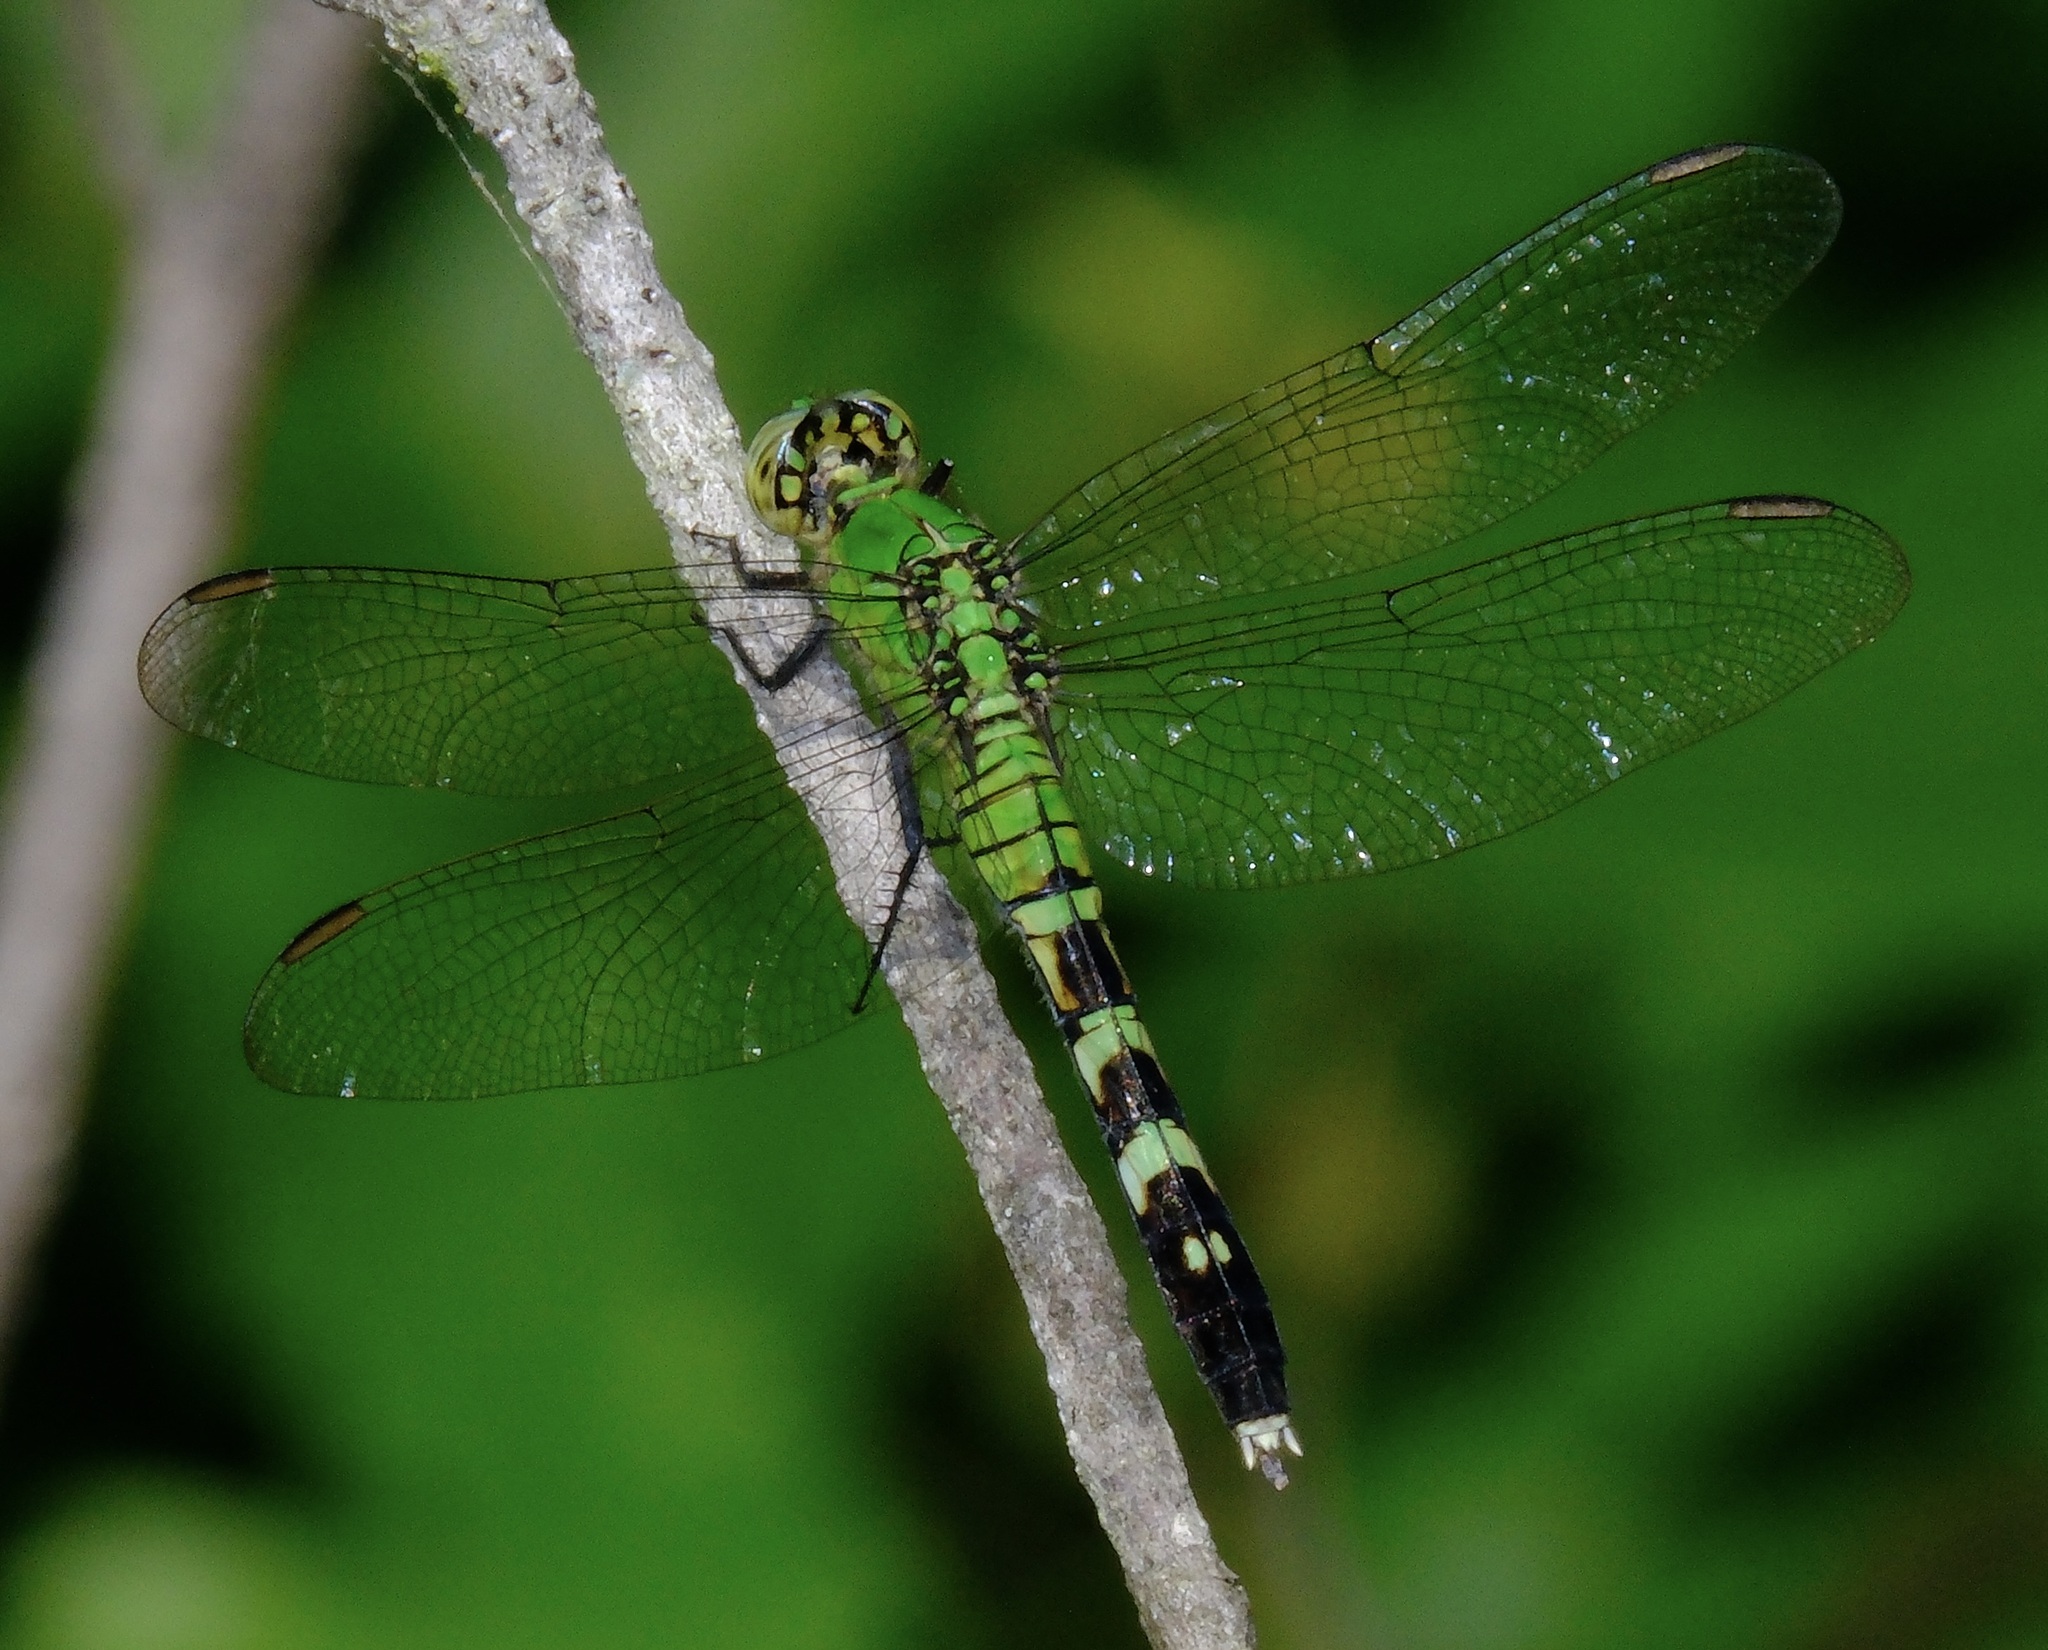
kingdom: Animalia
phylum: Arthropoda
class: Insecta
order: Odonata
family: Libellulidae
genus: Erythemis
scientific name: Erythemis simplicicollis
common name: Eastern pondhawk
